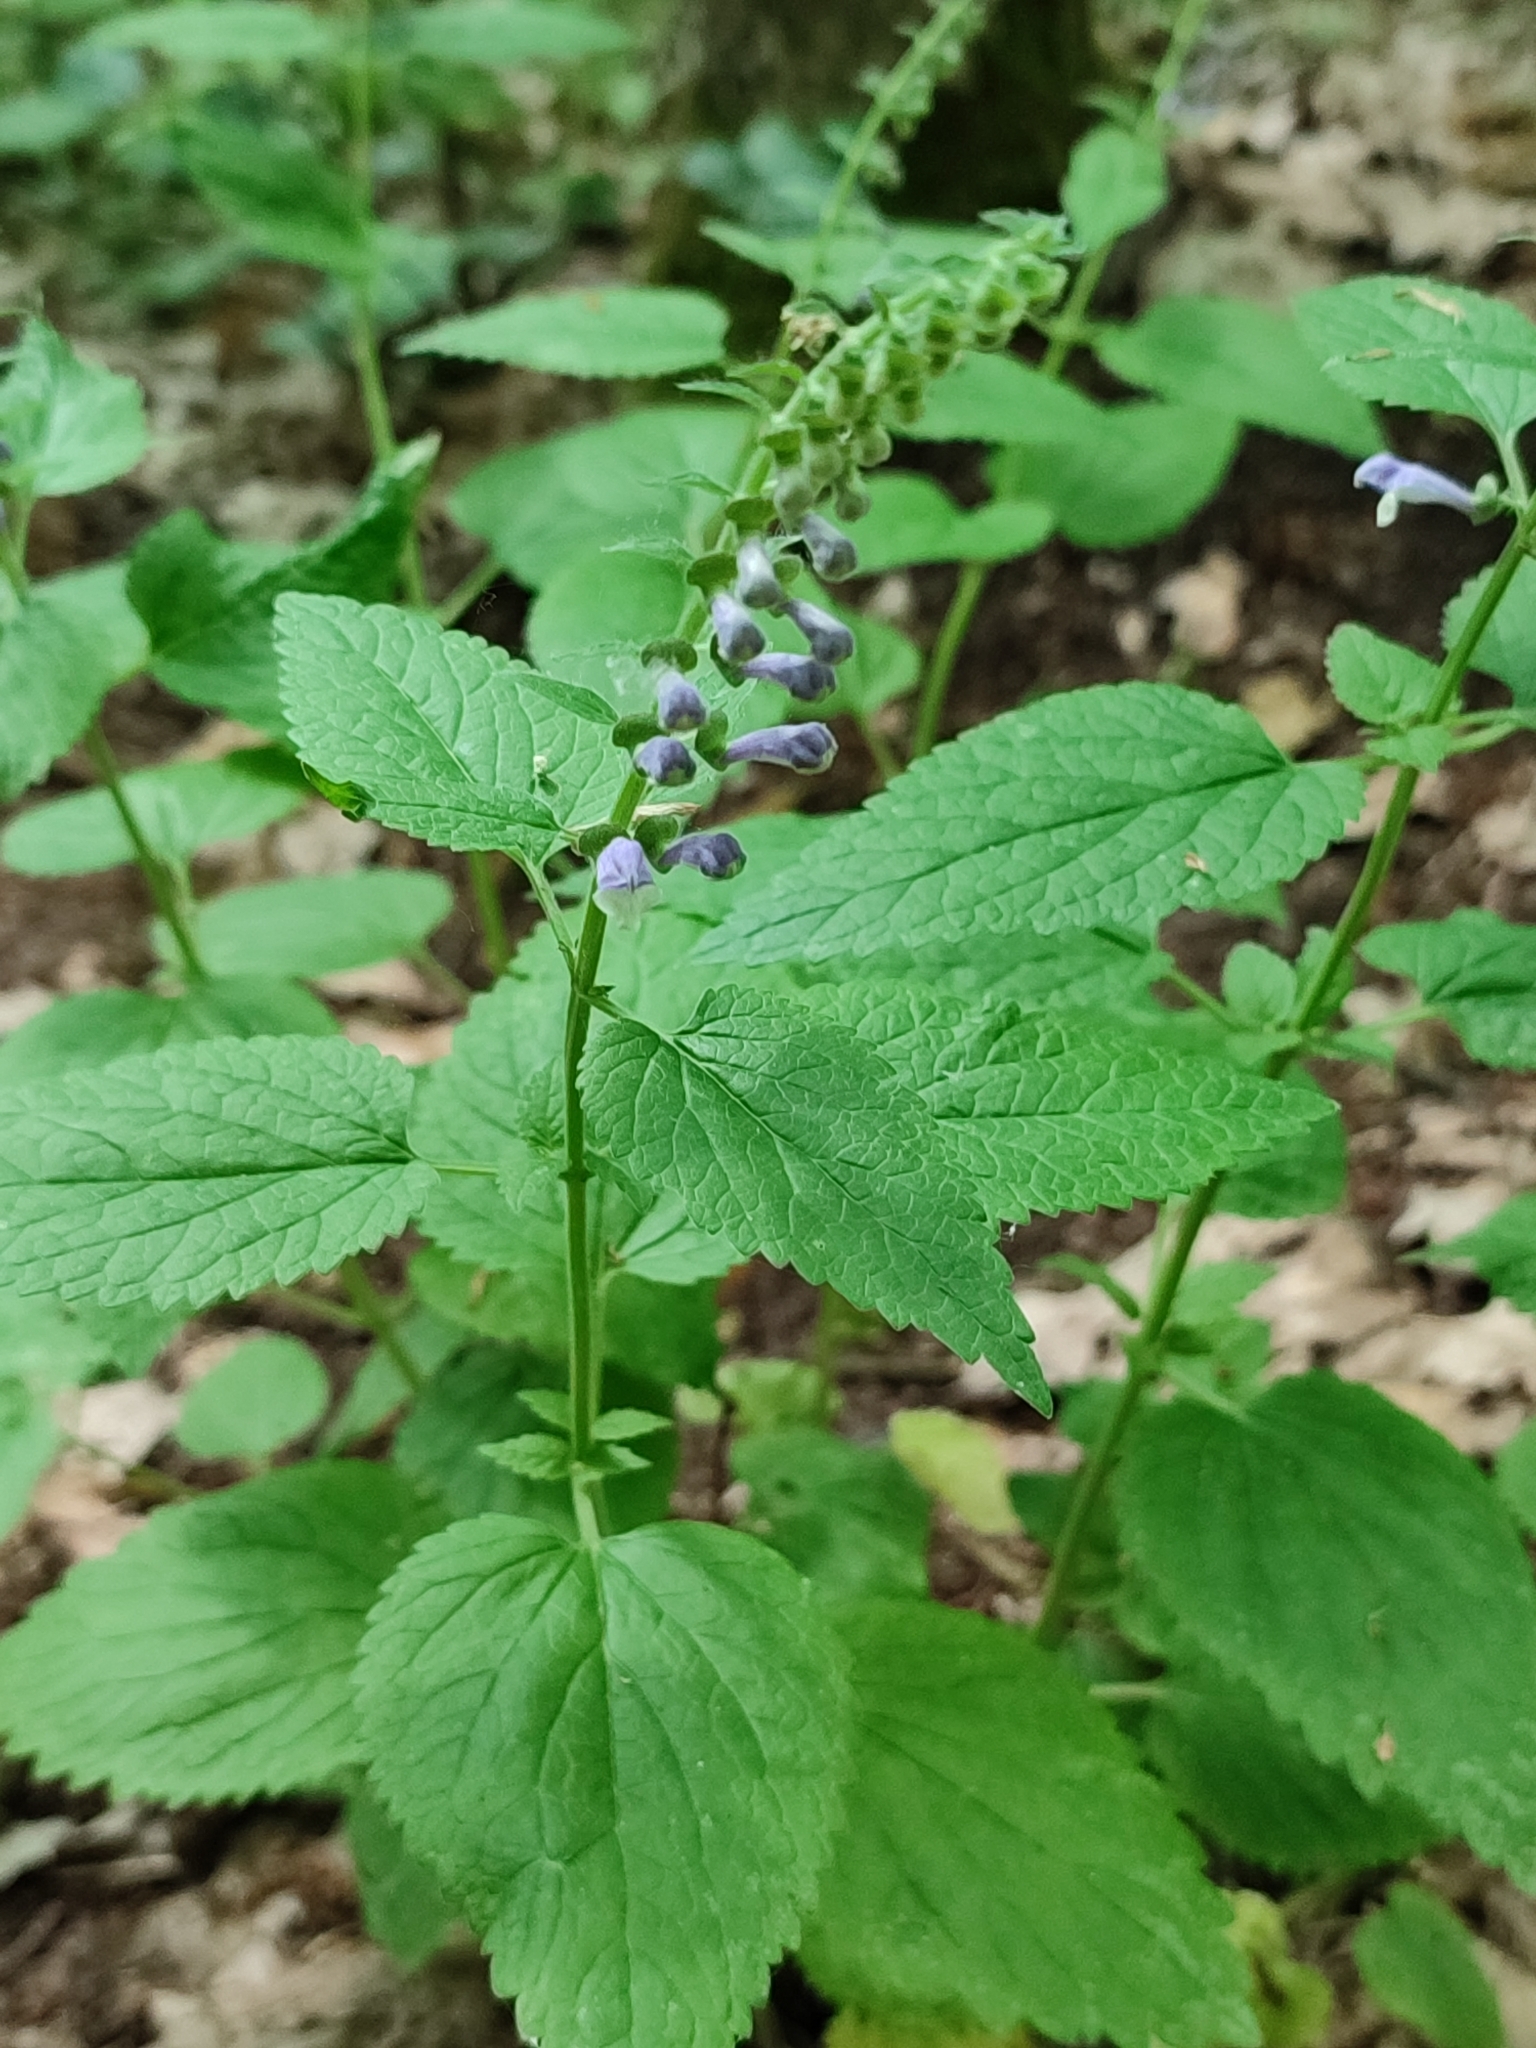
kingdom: Plantae
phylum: Tracheophyta
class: Magnoliopsida
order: Lamiales
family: Lamiaceae
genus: Scutellaria
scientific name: Scutellaria altissima
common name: Somerset skullcap
